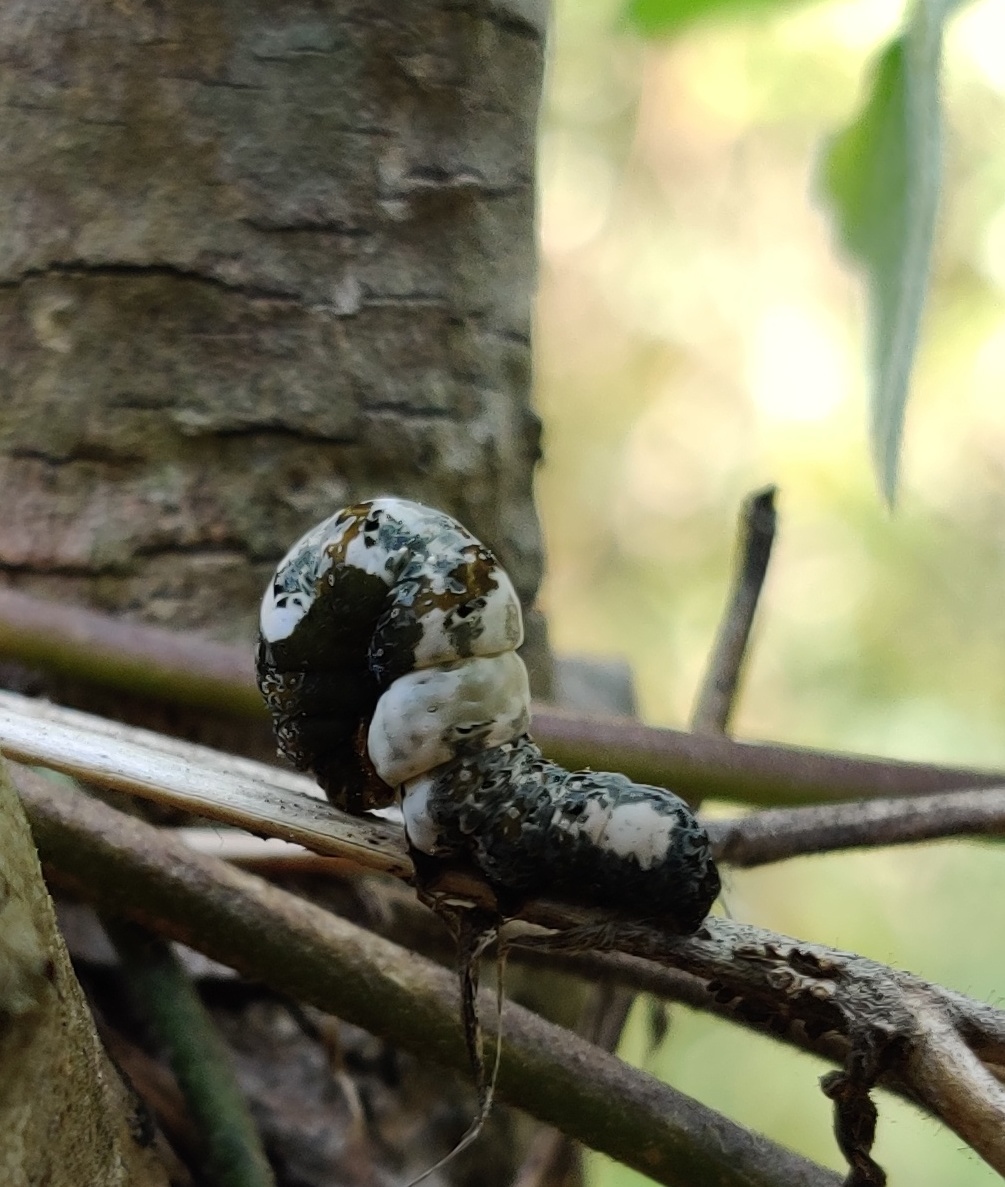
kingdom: Animalia
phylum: Arthropoda
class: Insecta
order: Lepidoptera
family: Erebidae
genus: Plusiodonta
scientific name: Plusiodonta compressipalpis
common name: Moonseed moth
